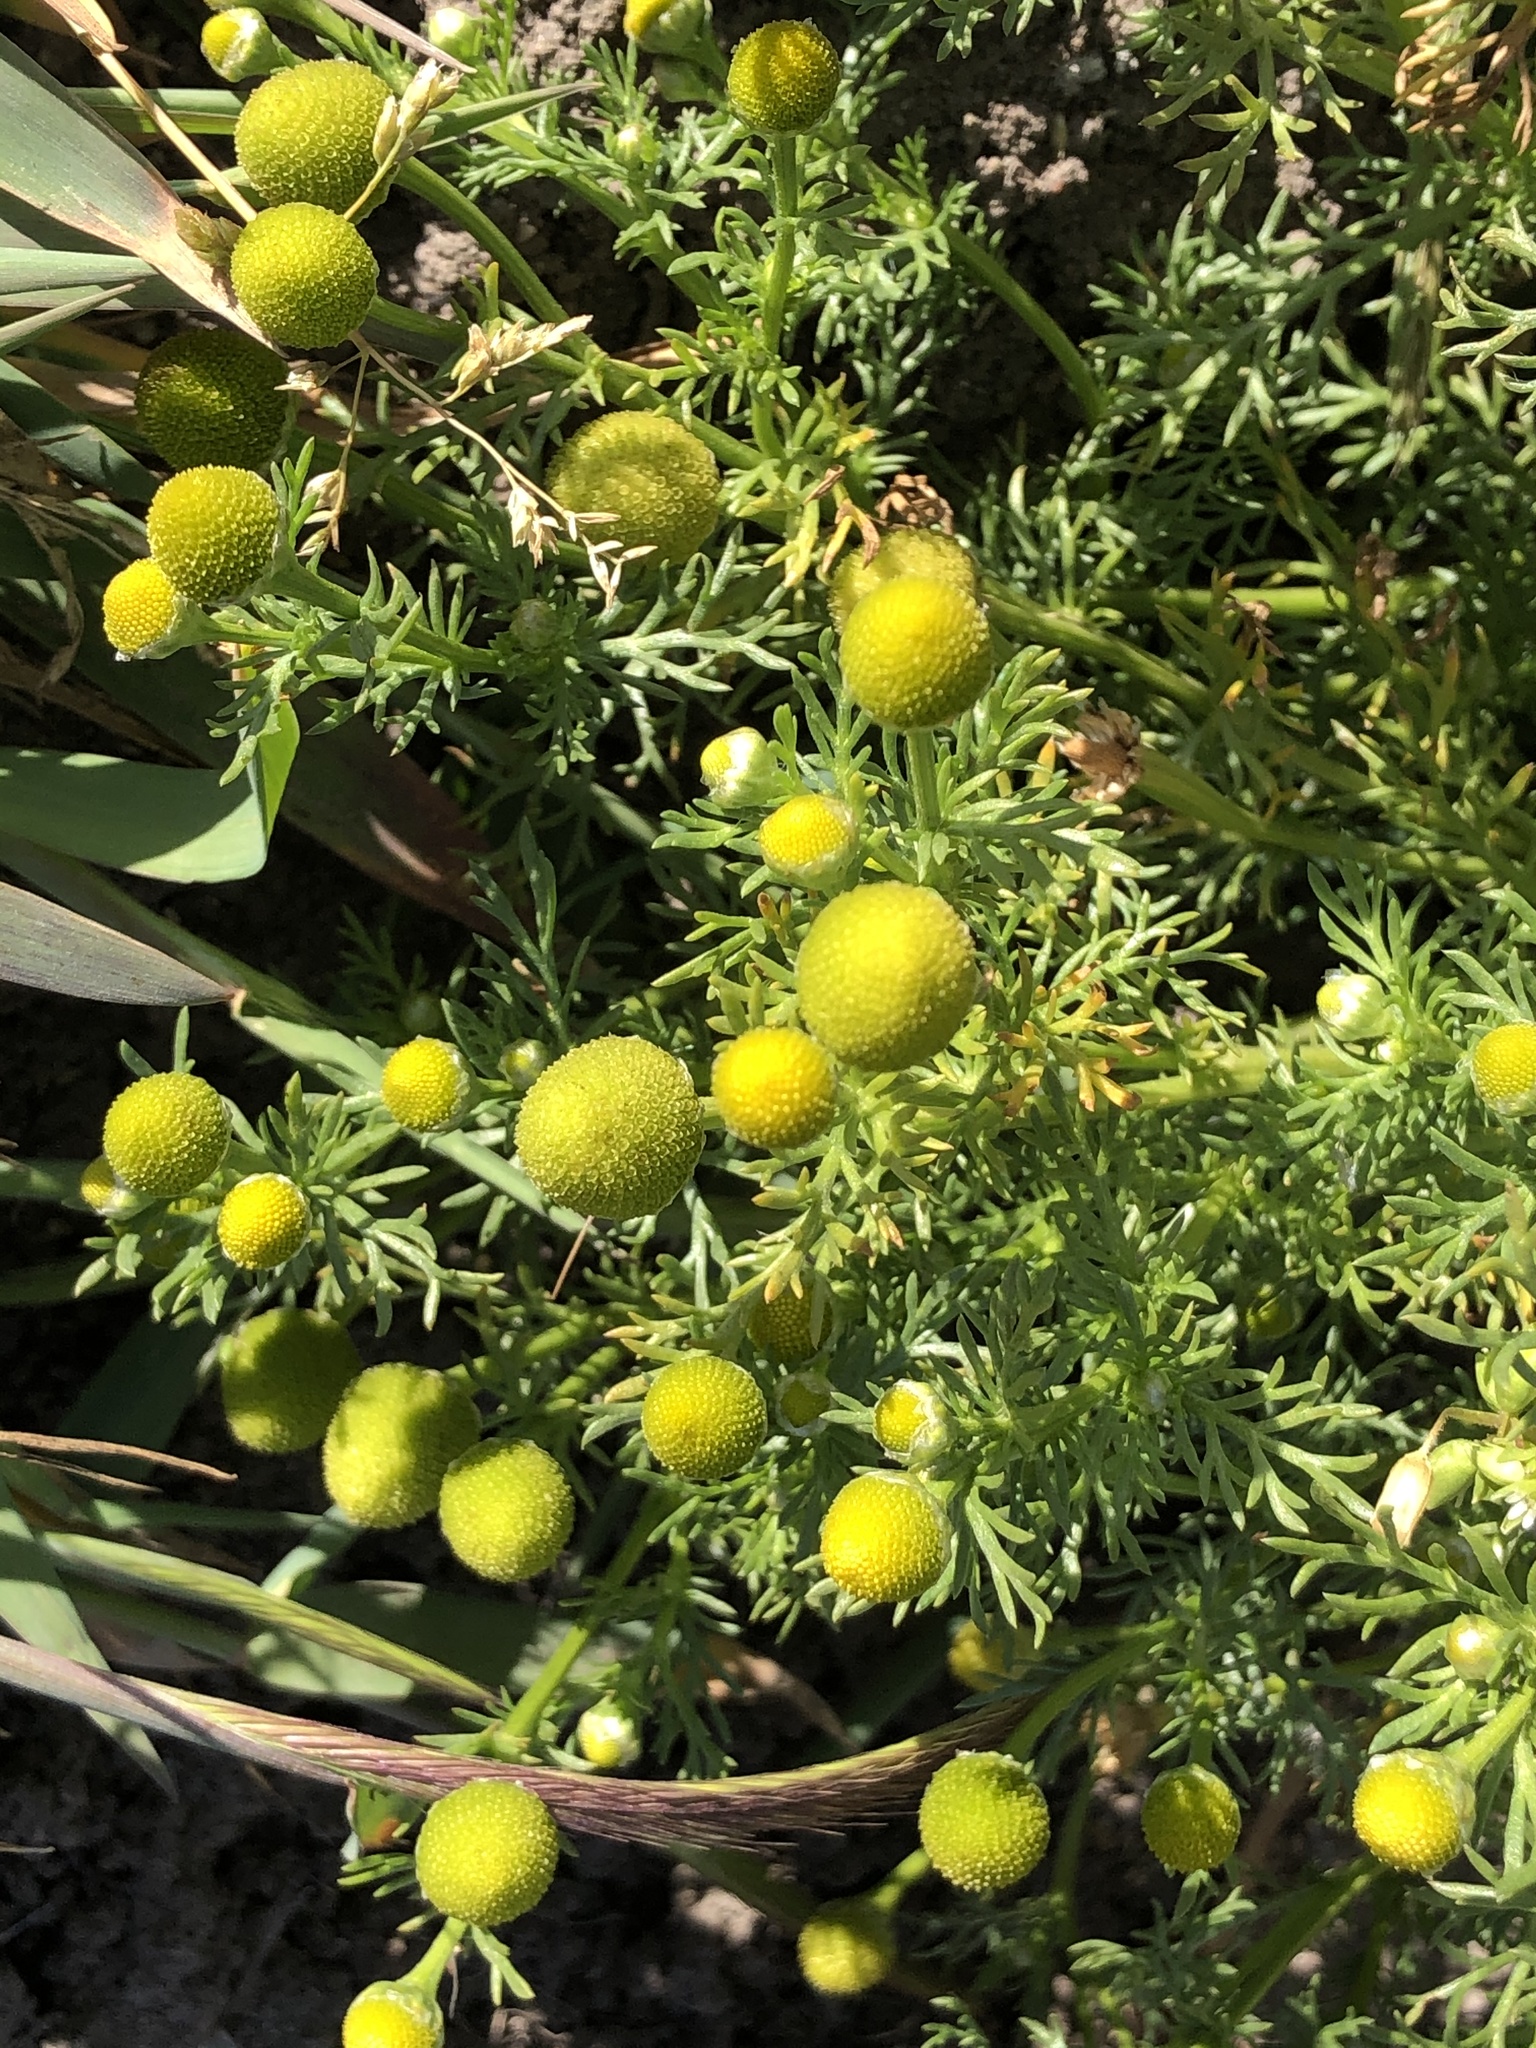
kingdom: Plantae
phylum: Tracheophyta
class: Magnoliopsida
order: Asterales
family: Asteraceae
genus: Matricaria
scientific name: Matricaria discoidea
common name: Disc mayweed
